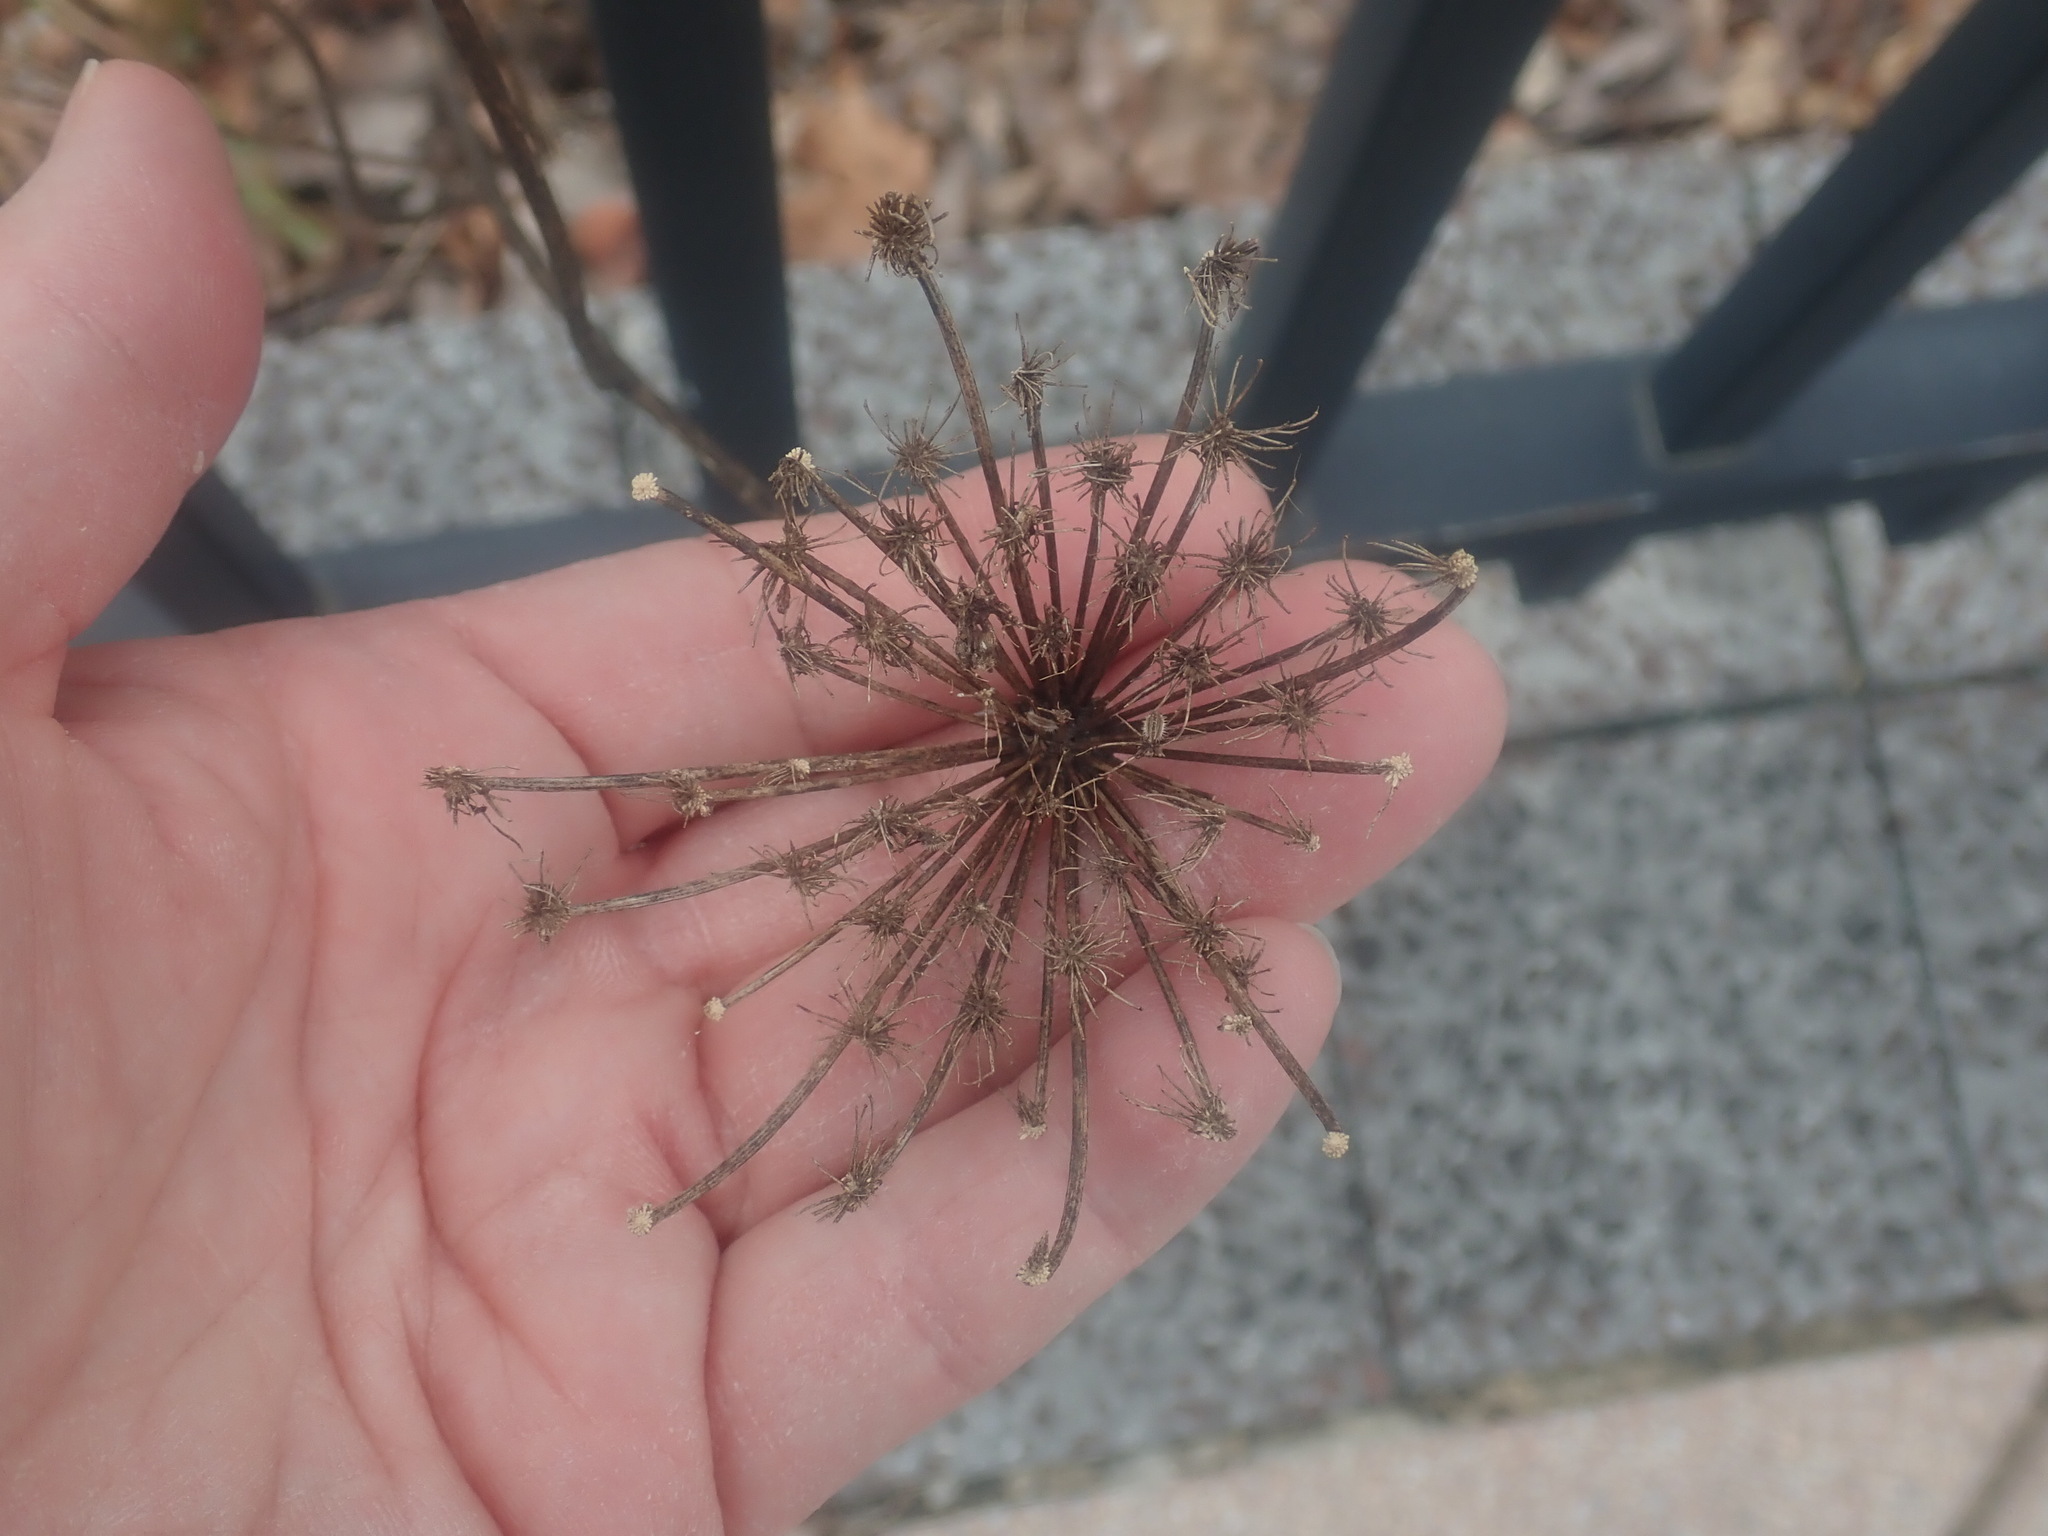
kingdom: Plantae
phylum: Tracheophyta
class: Magnoliopsida
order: Apiales
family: Apiaceae
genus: Daucus
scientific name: Daucus carota
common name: Wild carrot
